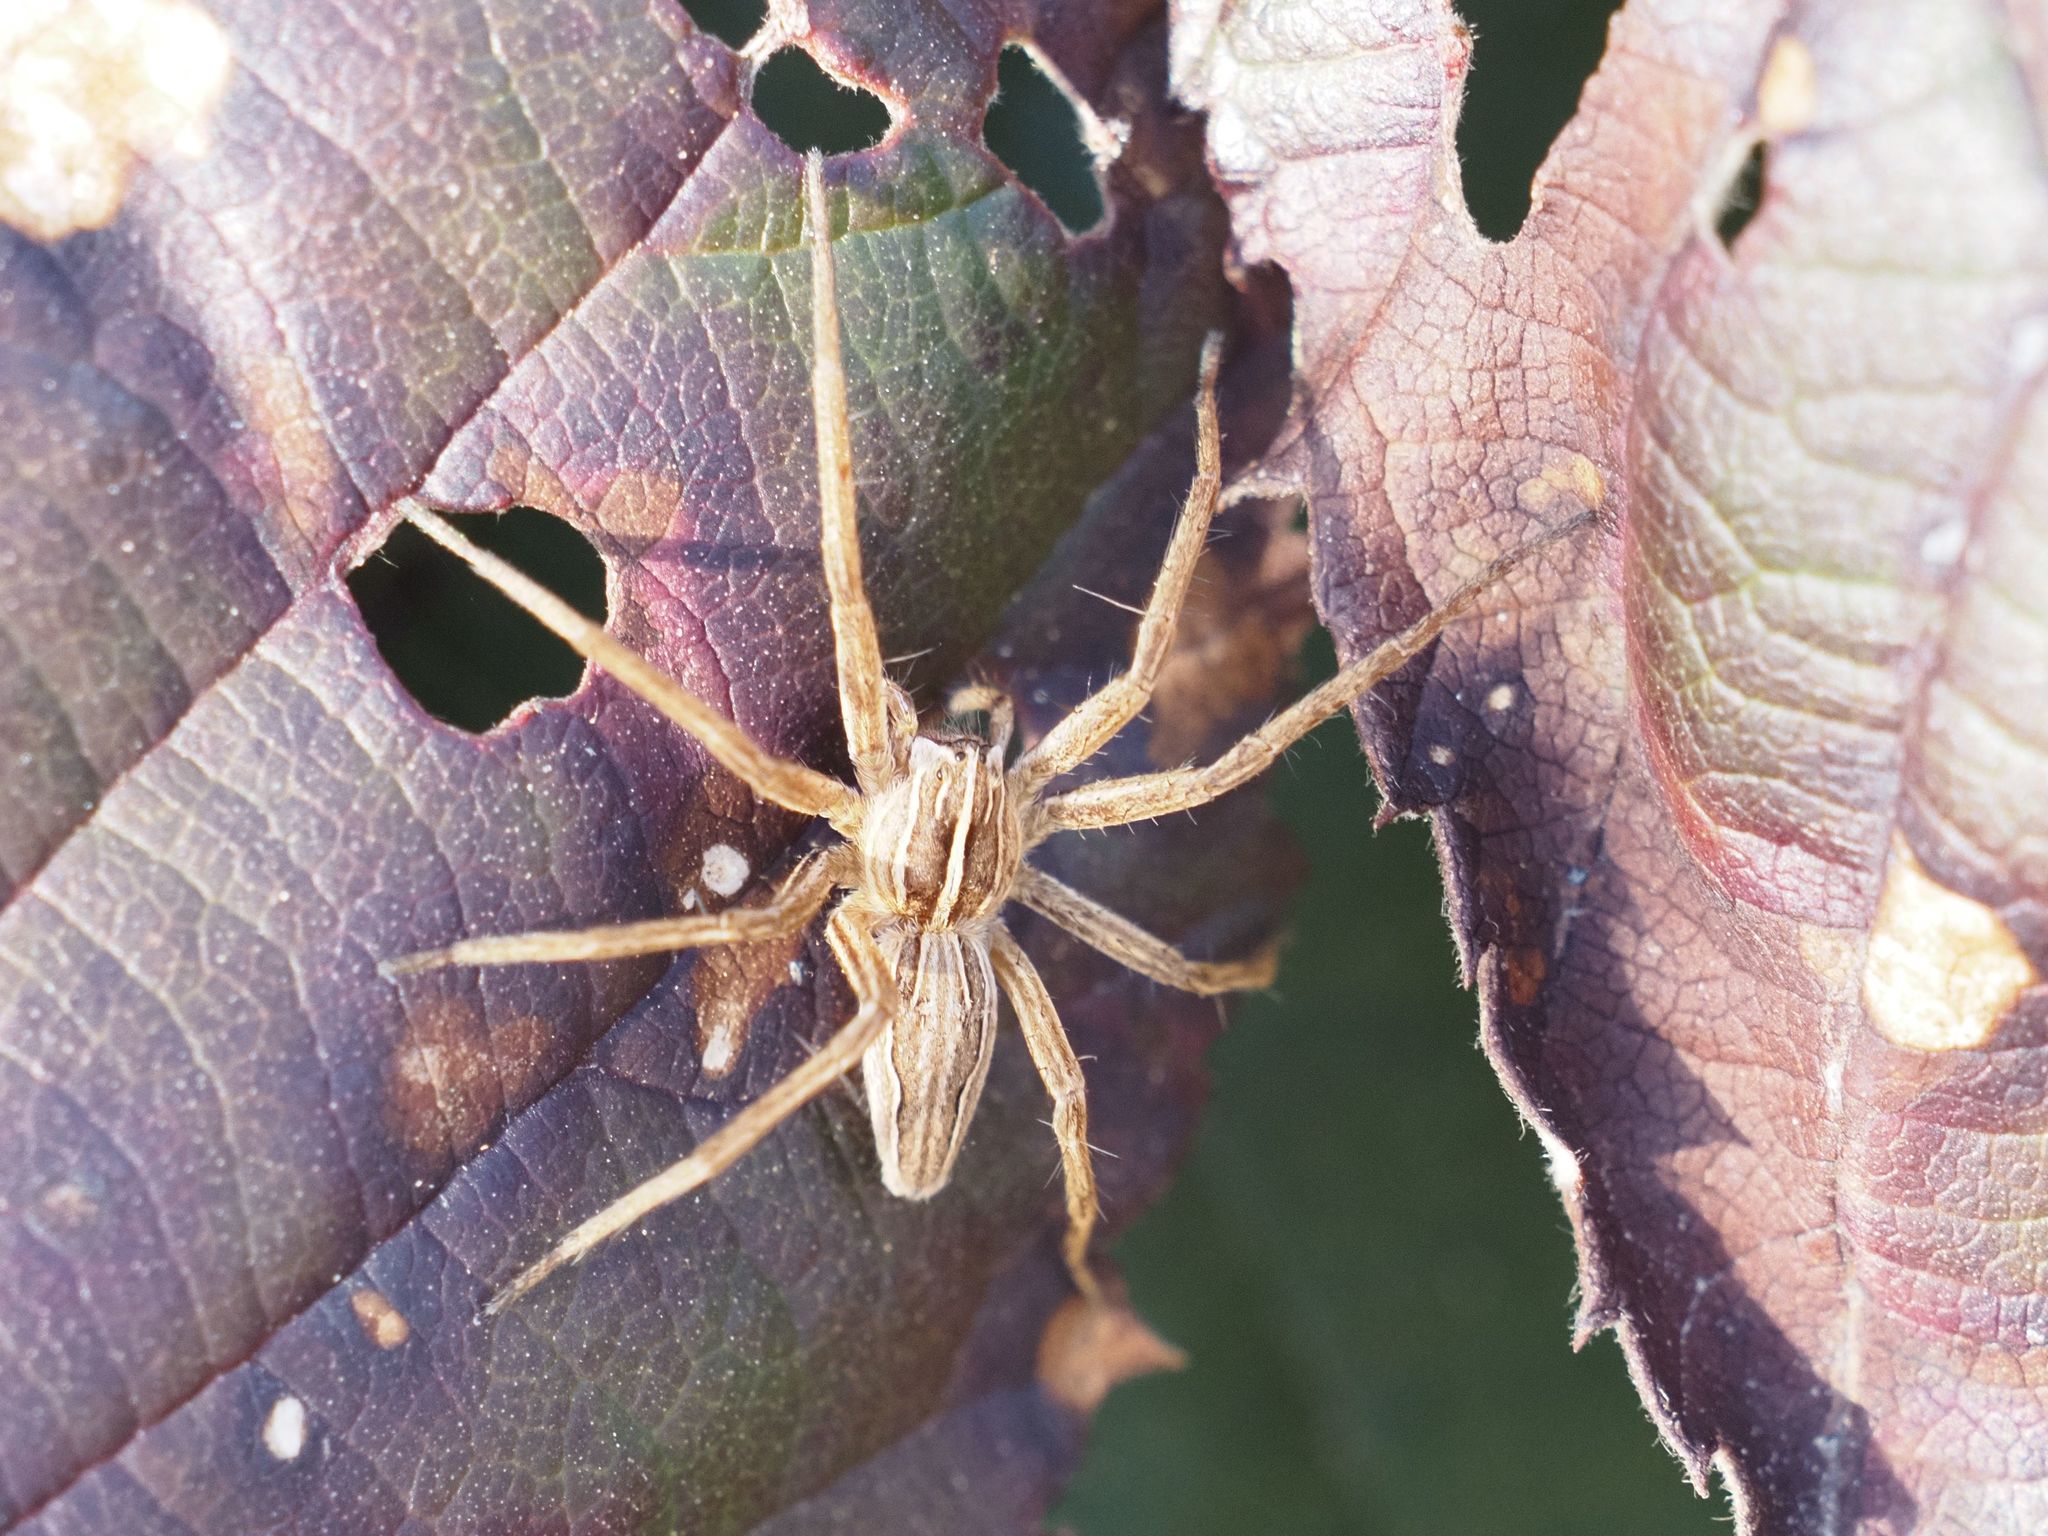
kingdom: Animalia
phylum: Arthropoda
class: Arachnida
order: Araneae
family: Pisauridae
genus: Pisaura
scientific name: Pisaura mirabilis
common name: Tent spider
